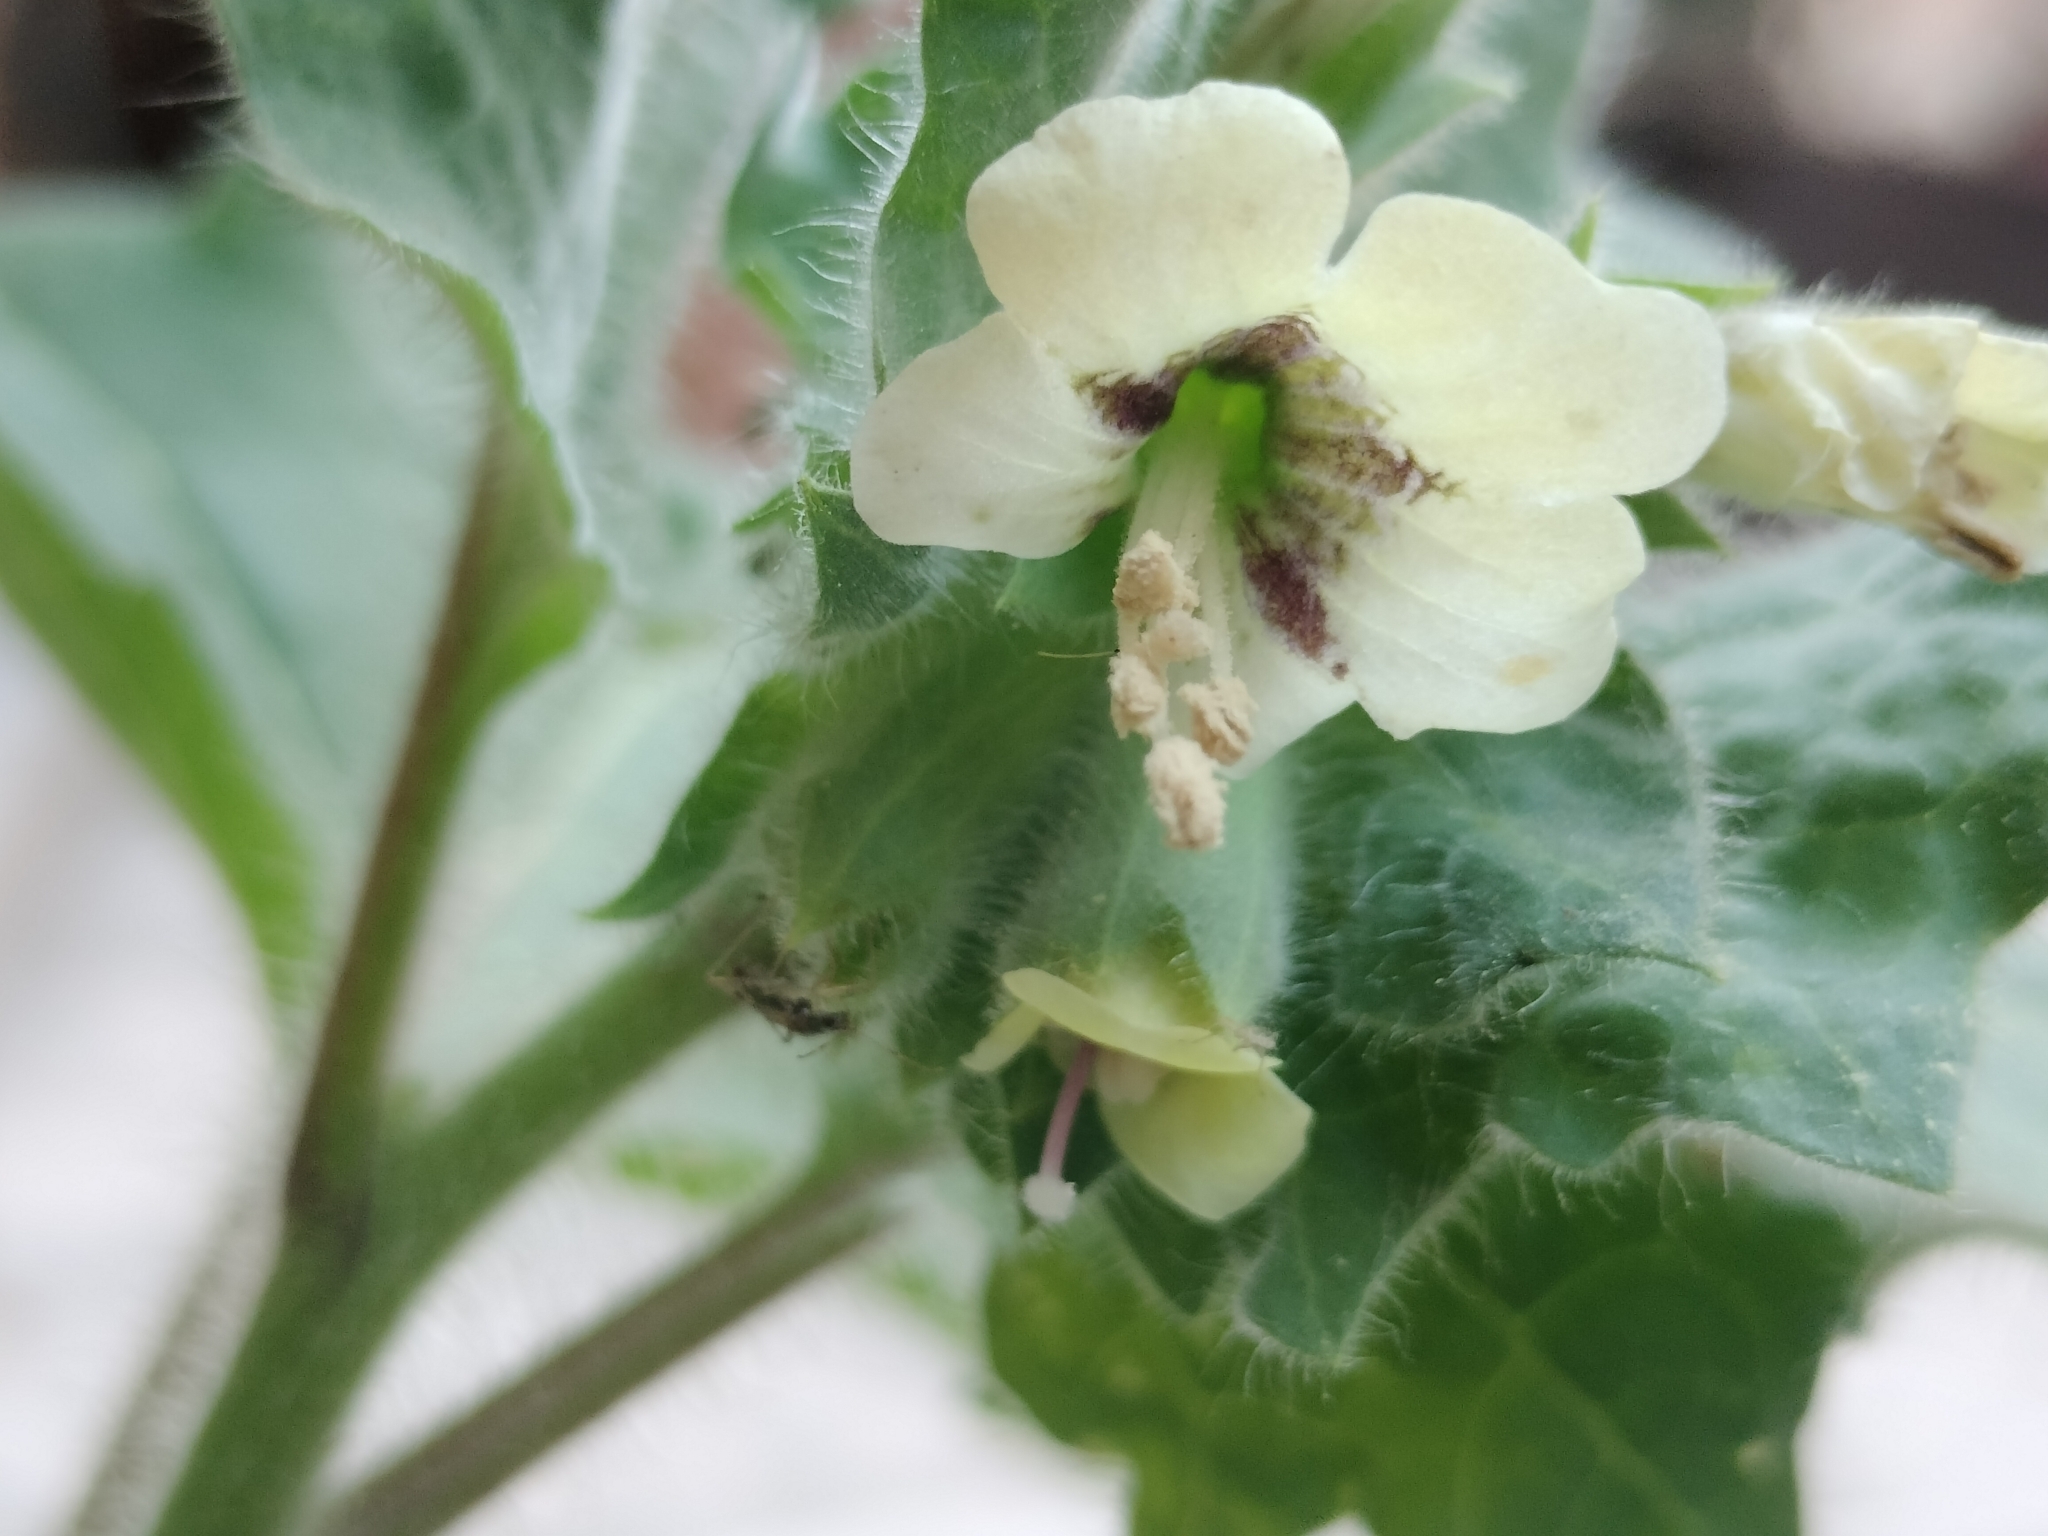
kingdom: Plantae
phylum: Tracheophyta
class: Magnoliopsida
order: Solanales
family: Solanaceae
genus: Hyoscyamus
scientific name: Hyoscyamus albus
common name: White henbane
